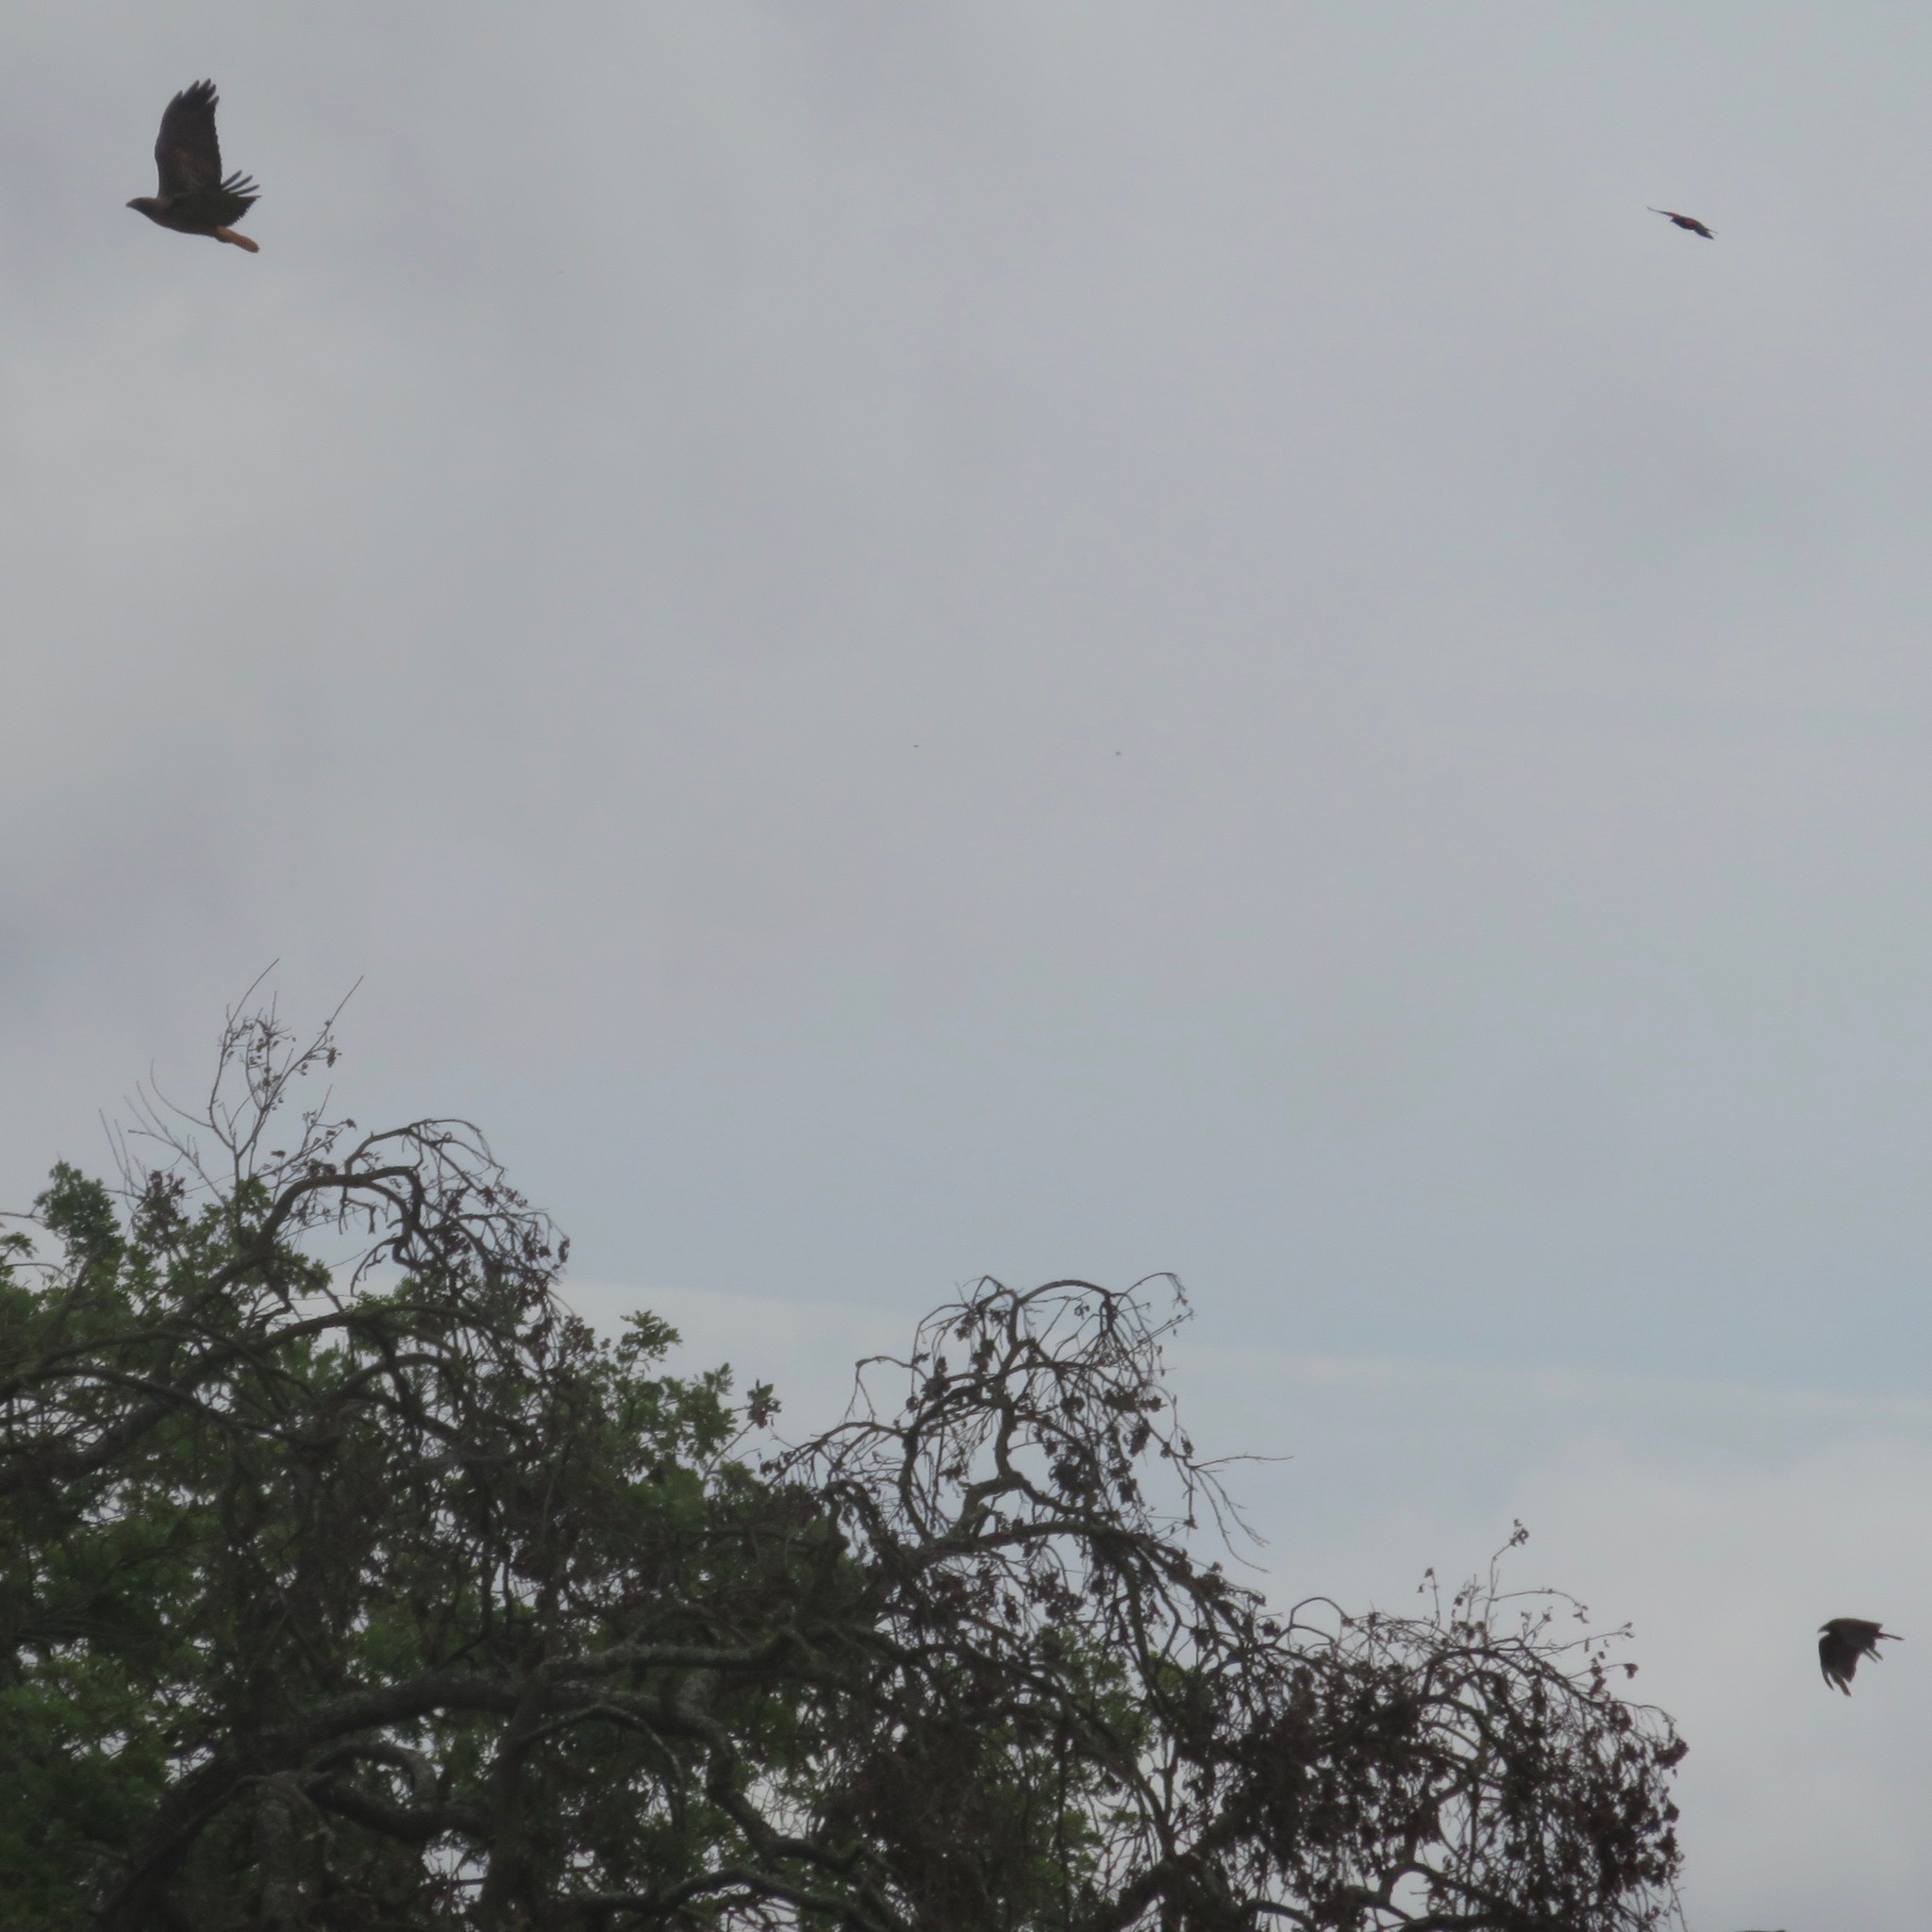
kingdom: Animalia
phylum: Chordata
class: Aves
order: Passeriformes
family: Corvidae
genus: Corvus
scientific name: Corvus brachyrhynchos
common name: American crow
